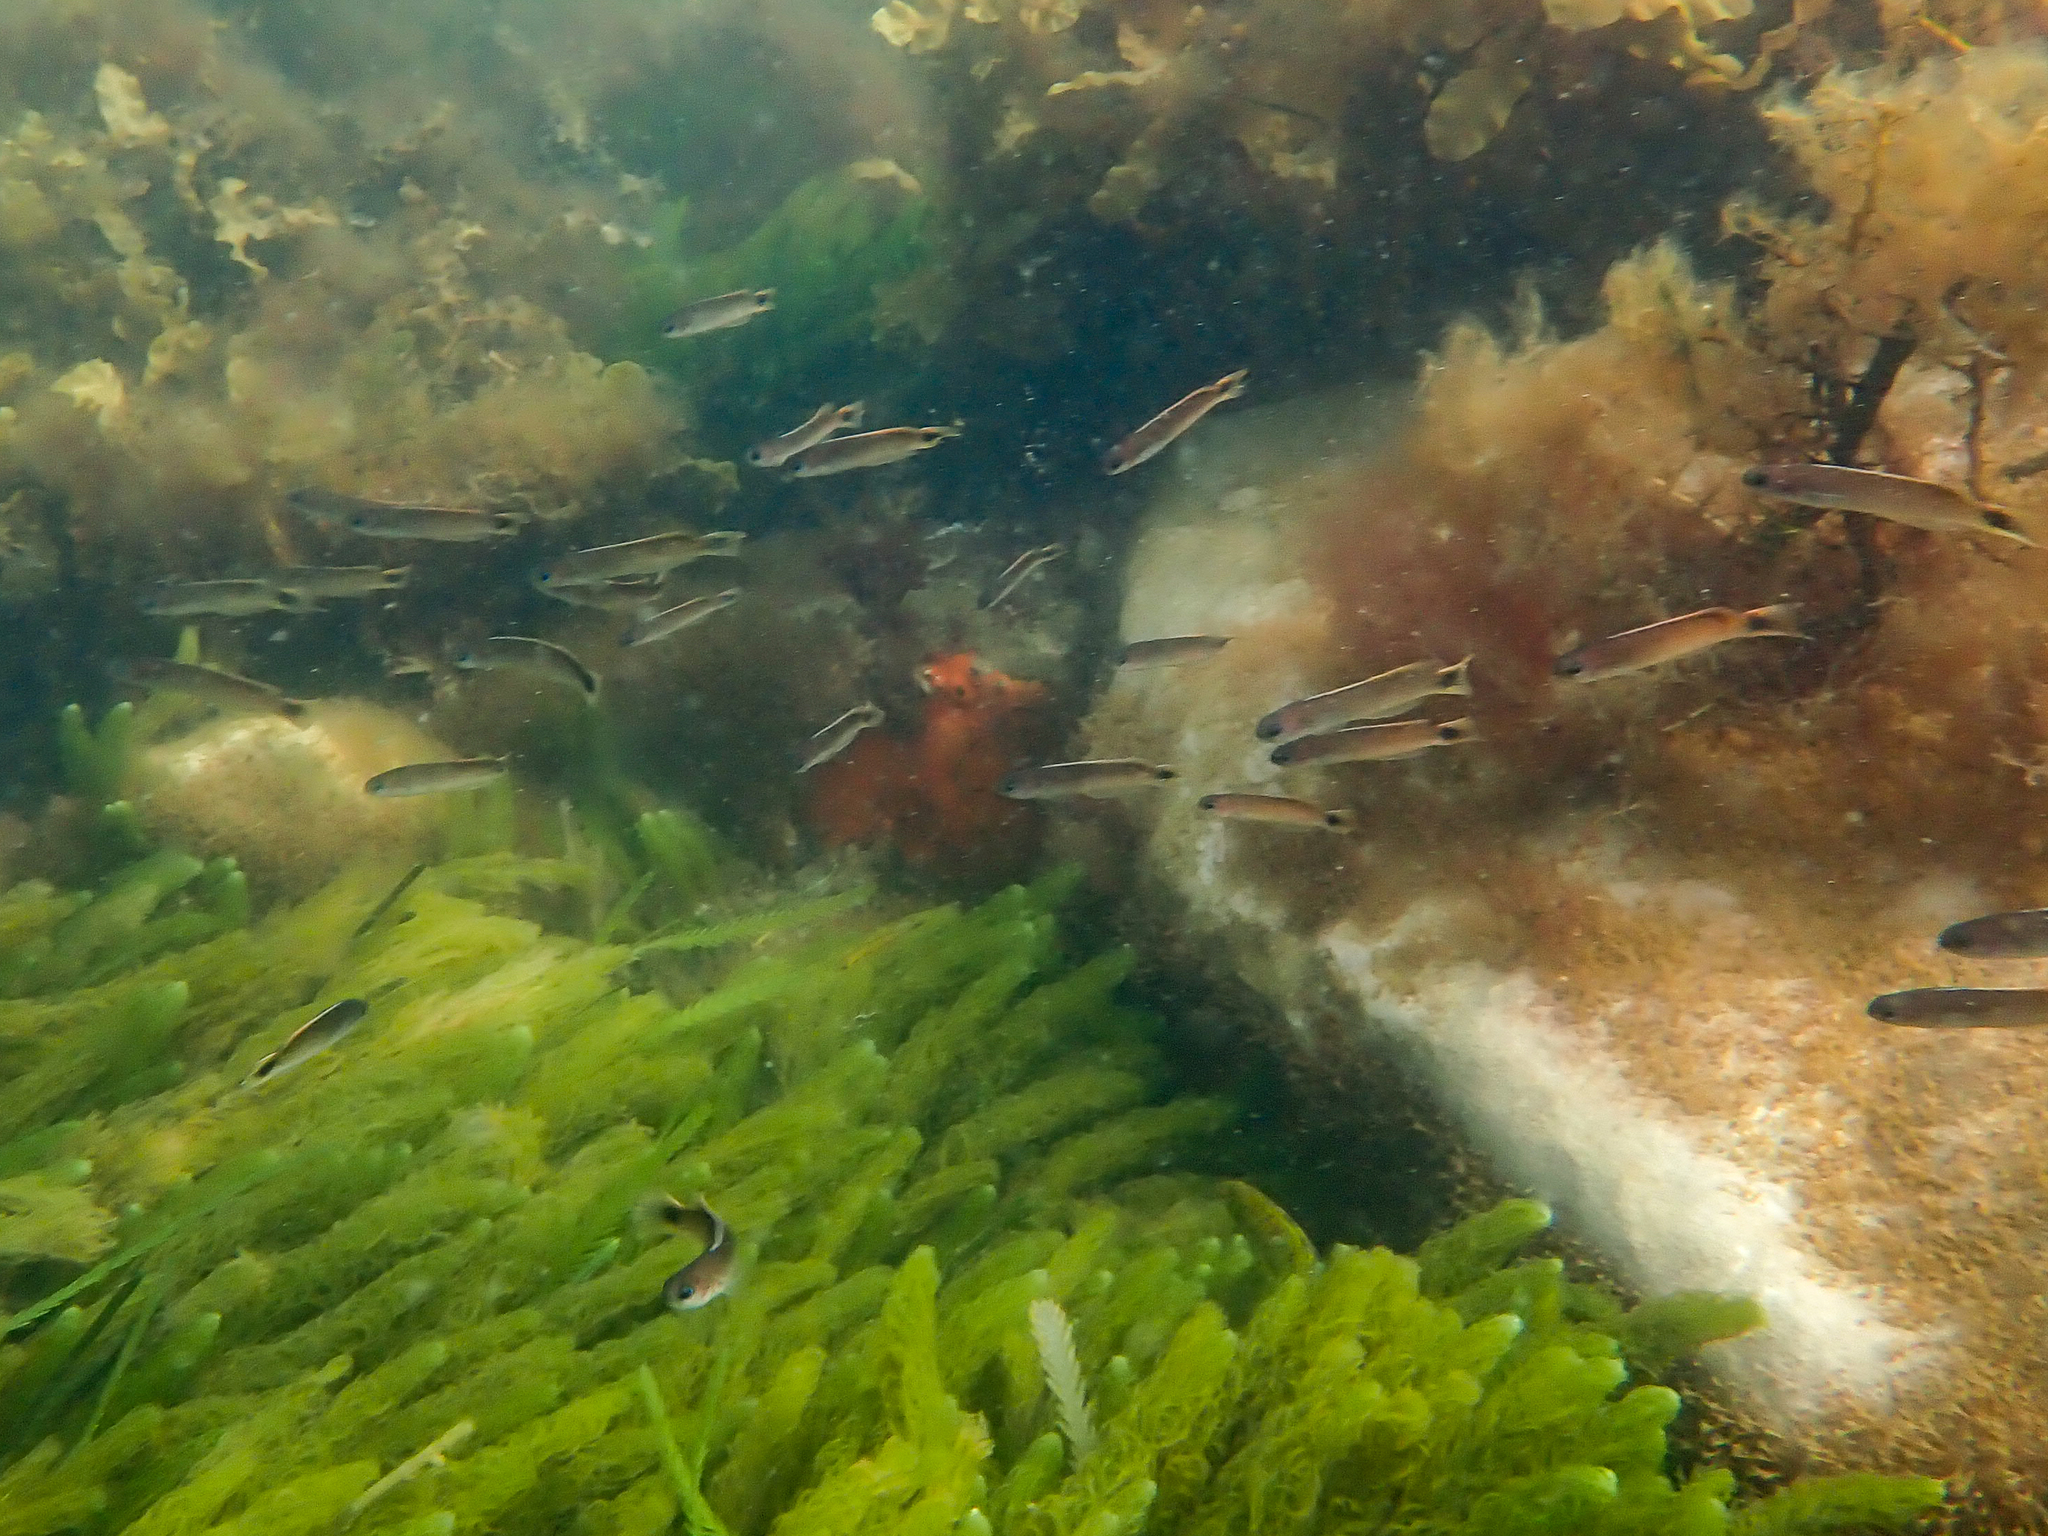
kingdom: Animalia
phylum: Chordata
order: Perciformes
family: Plesiopidae
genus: Trachinops
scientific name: Trachinops caudimaculatus
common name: Blotched-tailed trachinops
